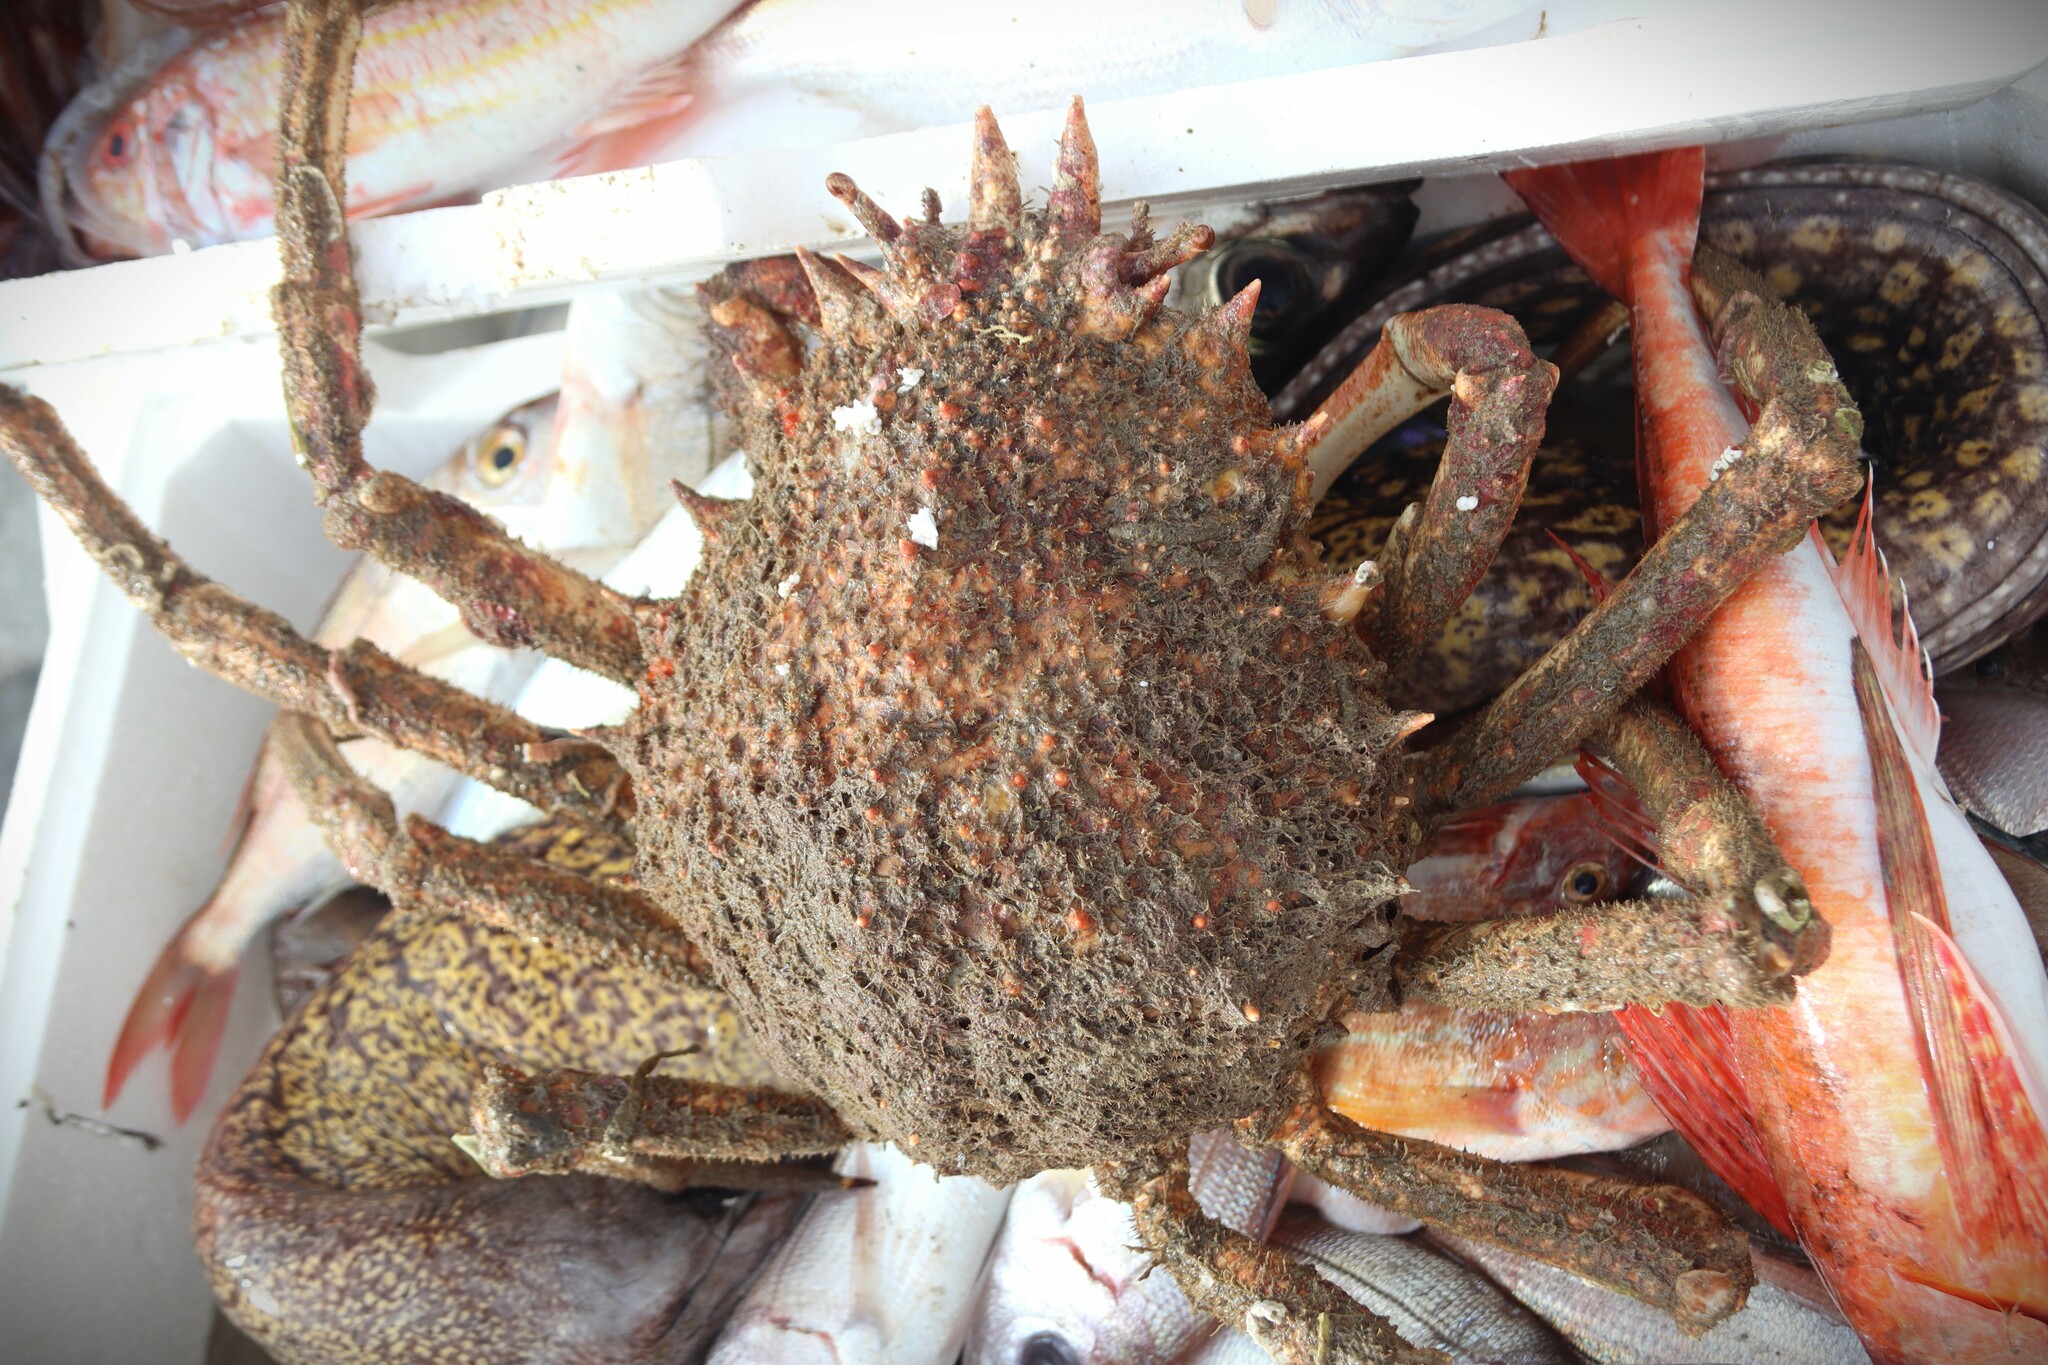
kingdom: Animalia
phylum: Arthropoda
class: Malacostraca
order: Decapoda
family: Majidae
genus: Maja
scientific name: Maja squinado
